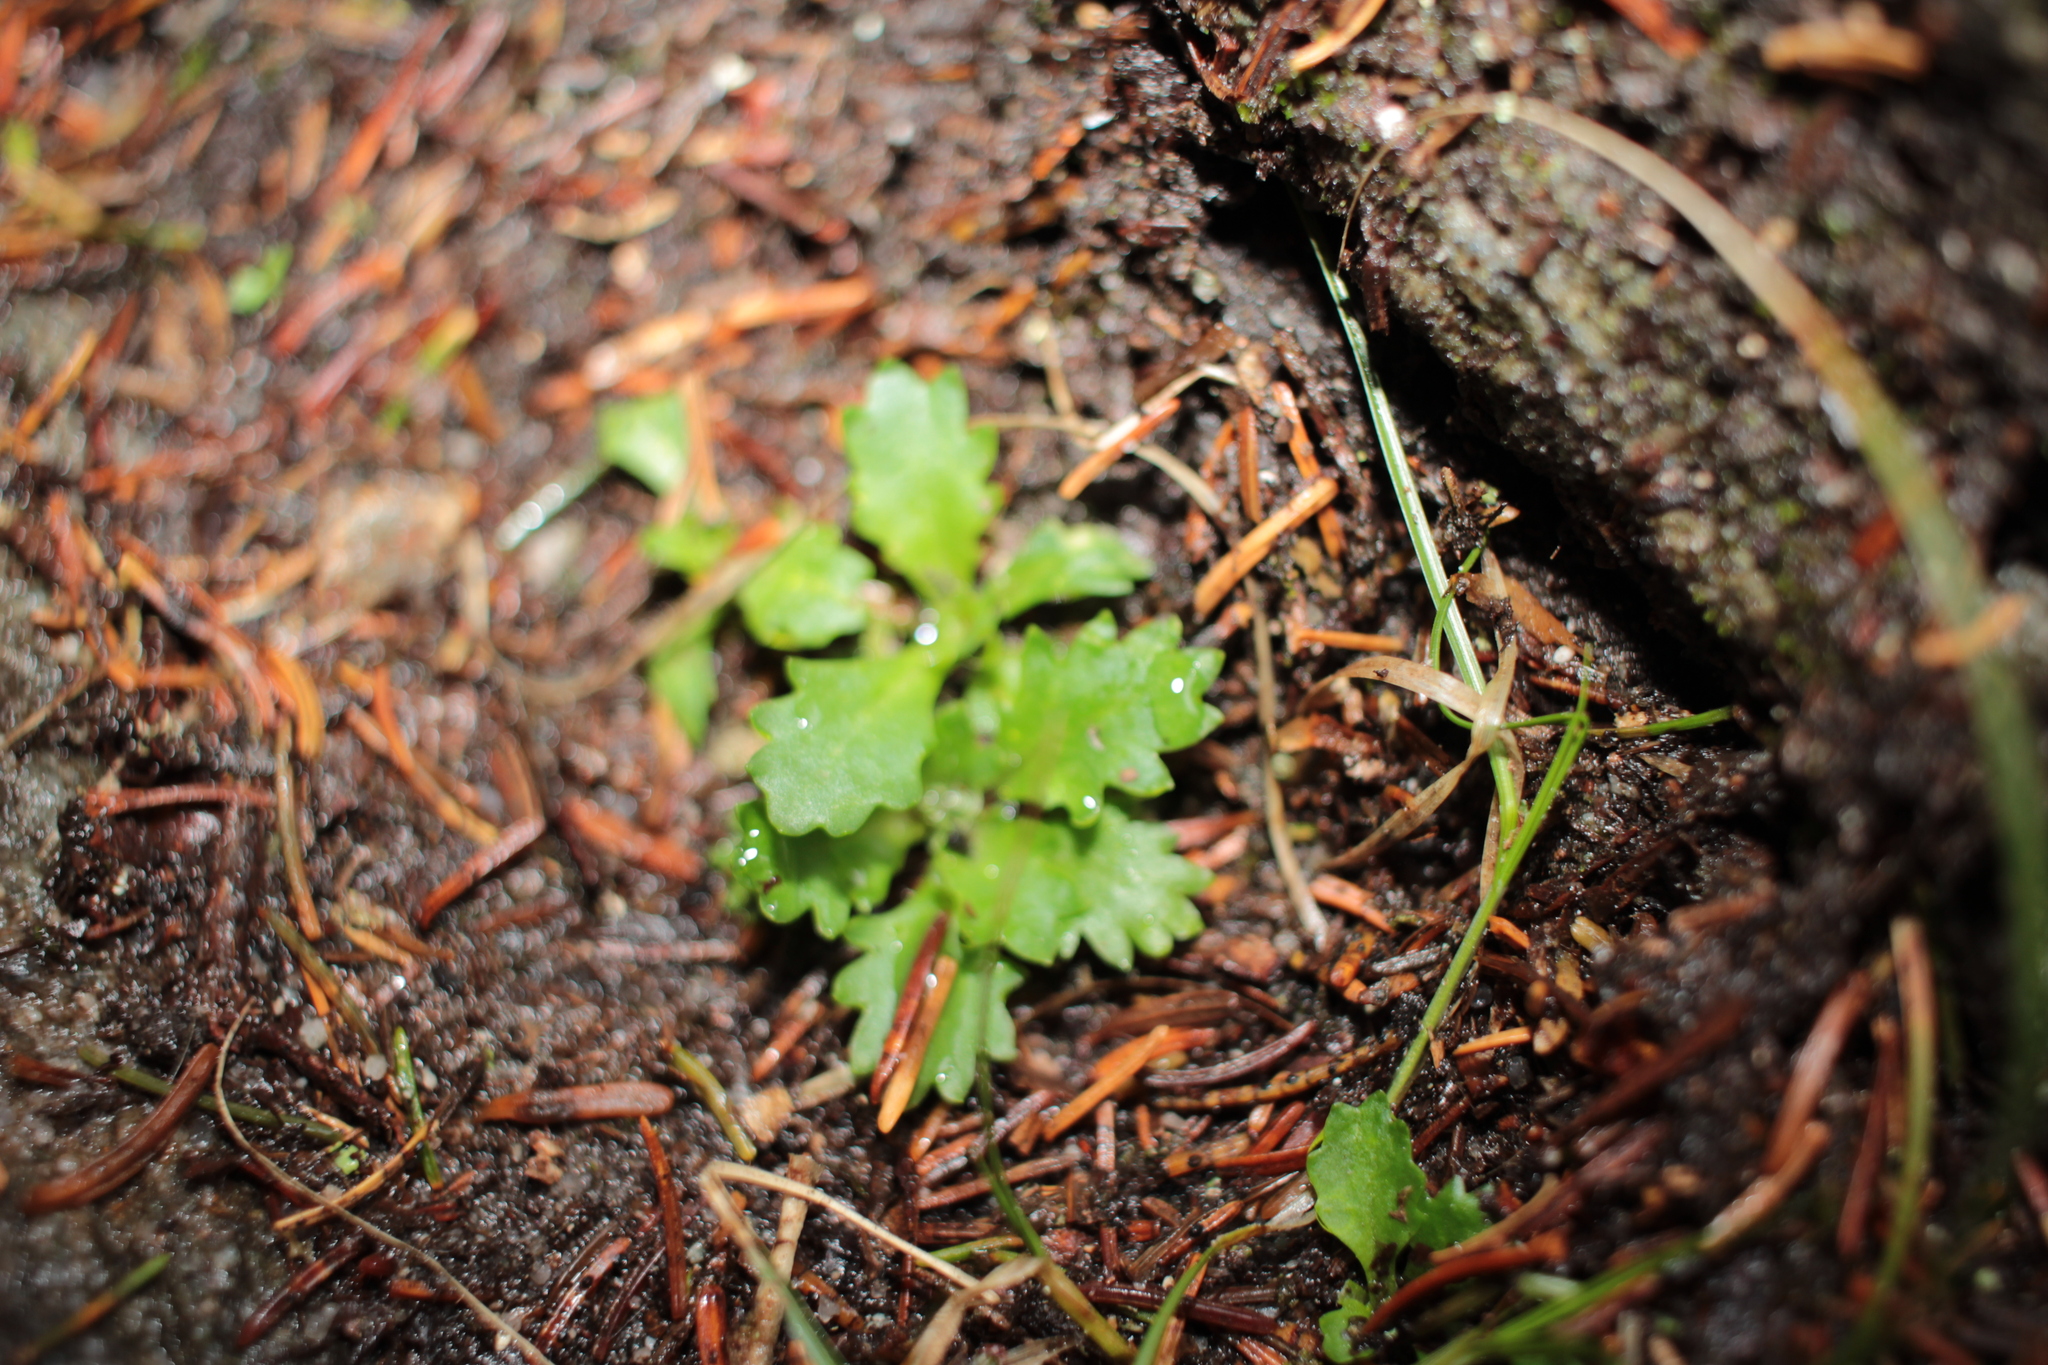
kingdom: Plantae
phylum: Tracheophyta
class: Magnoliopsida
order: Saxifragales
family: Saxifragaceae
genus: Micranthes
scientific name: Micranthes petiolaris
